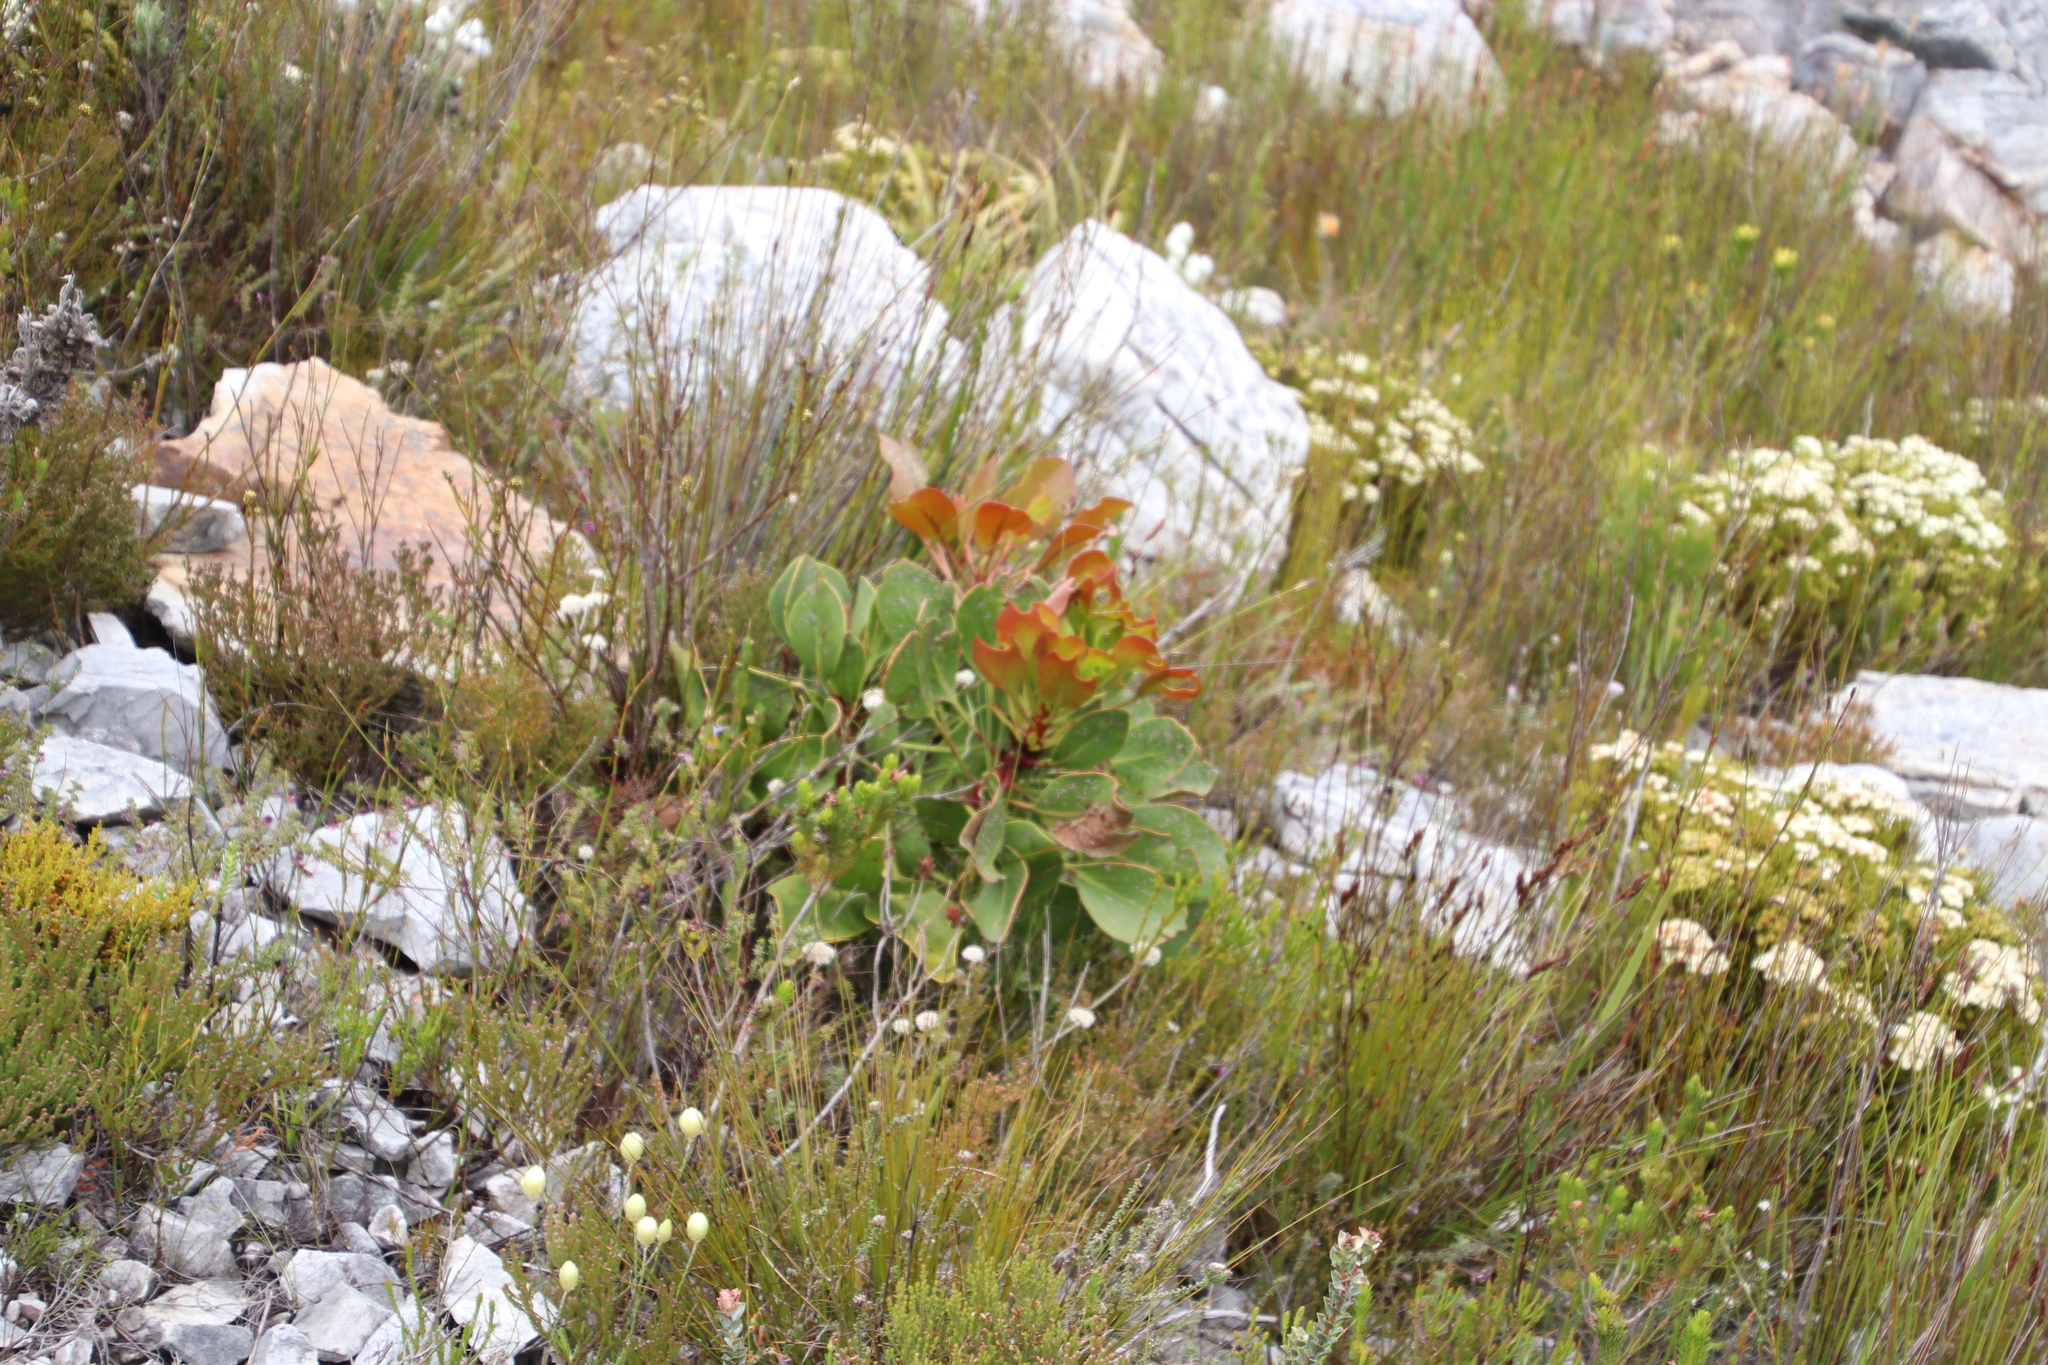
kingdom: Plantae
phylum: Tracheophyta
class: Magnoliopsida
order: Proteales
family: Proteaceae
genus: Protea
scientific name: Protea cynaroides
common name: King protea
